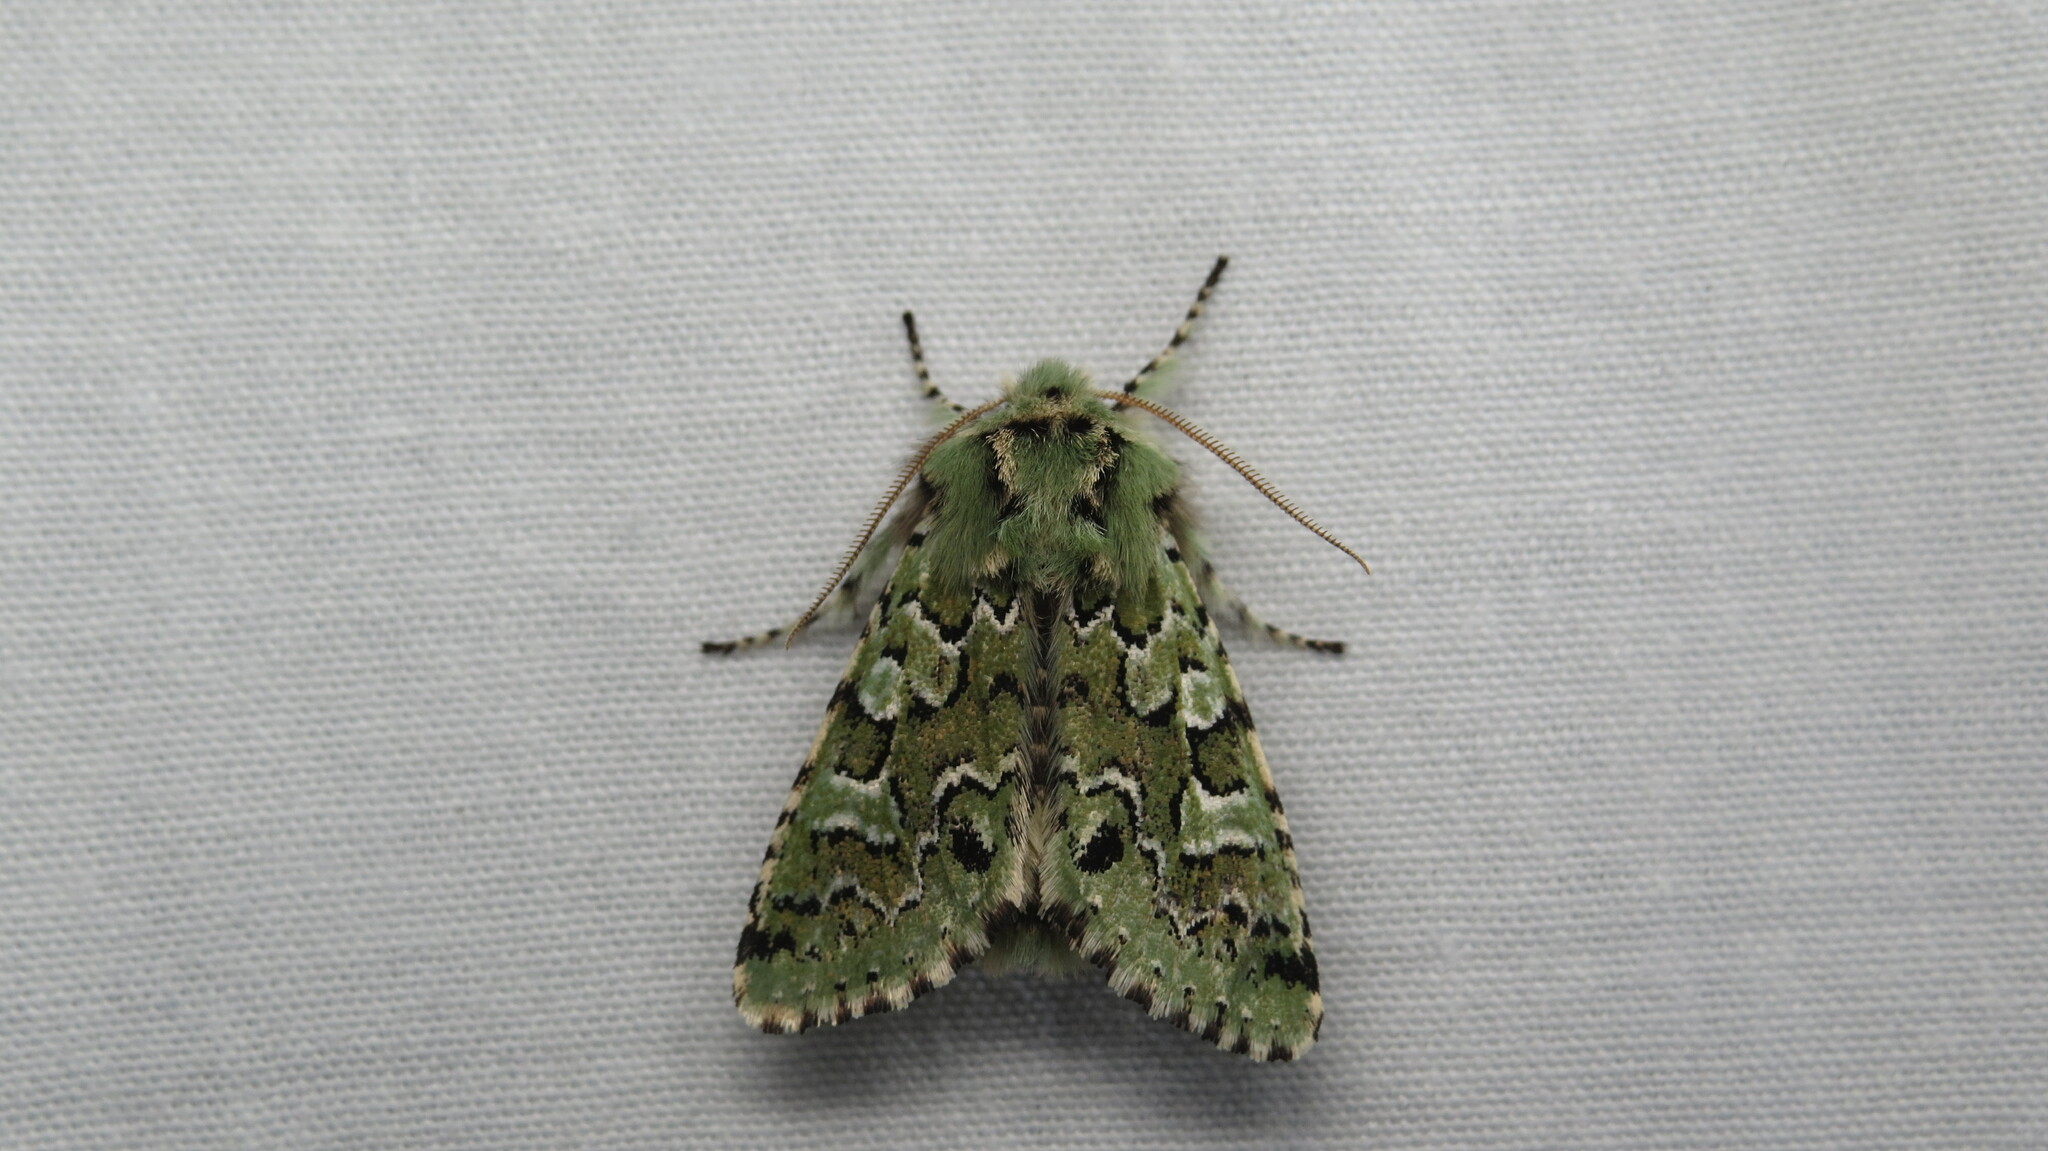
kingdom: Animalia
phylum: Arthropoda
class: Insecta
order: Lepidoptera
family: Noctuidae
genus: Feralia
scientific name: Feralia jocosa
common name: Joker
